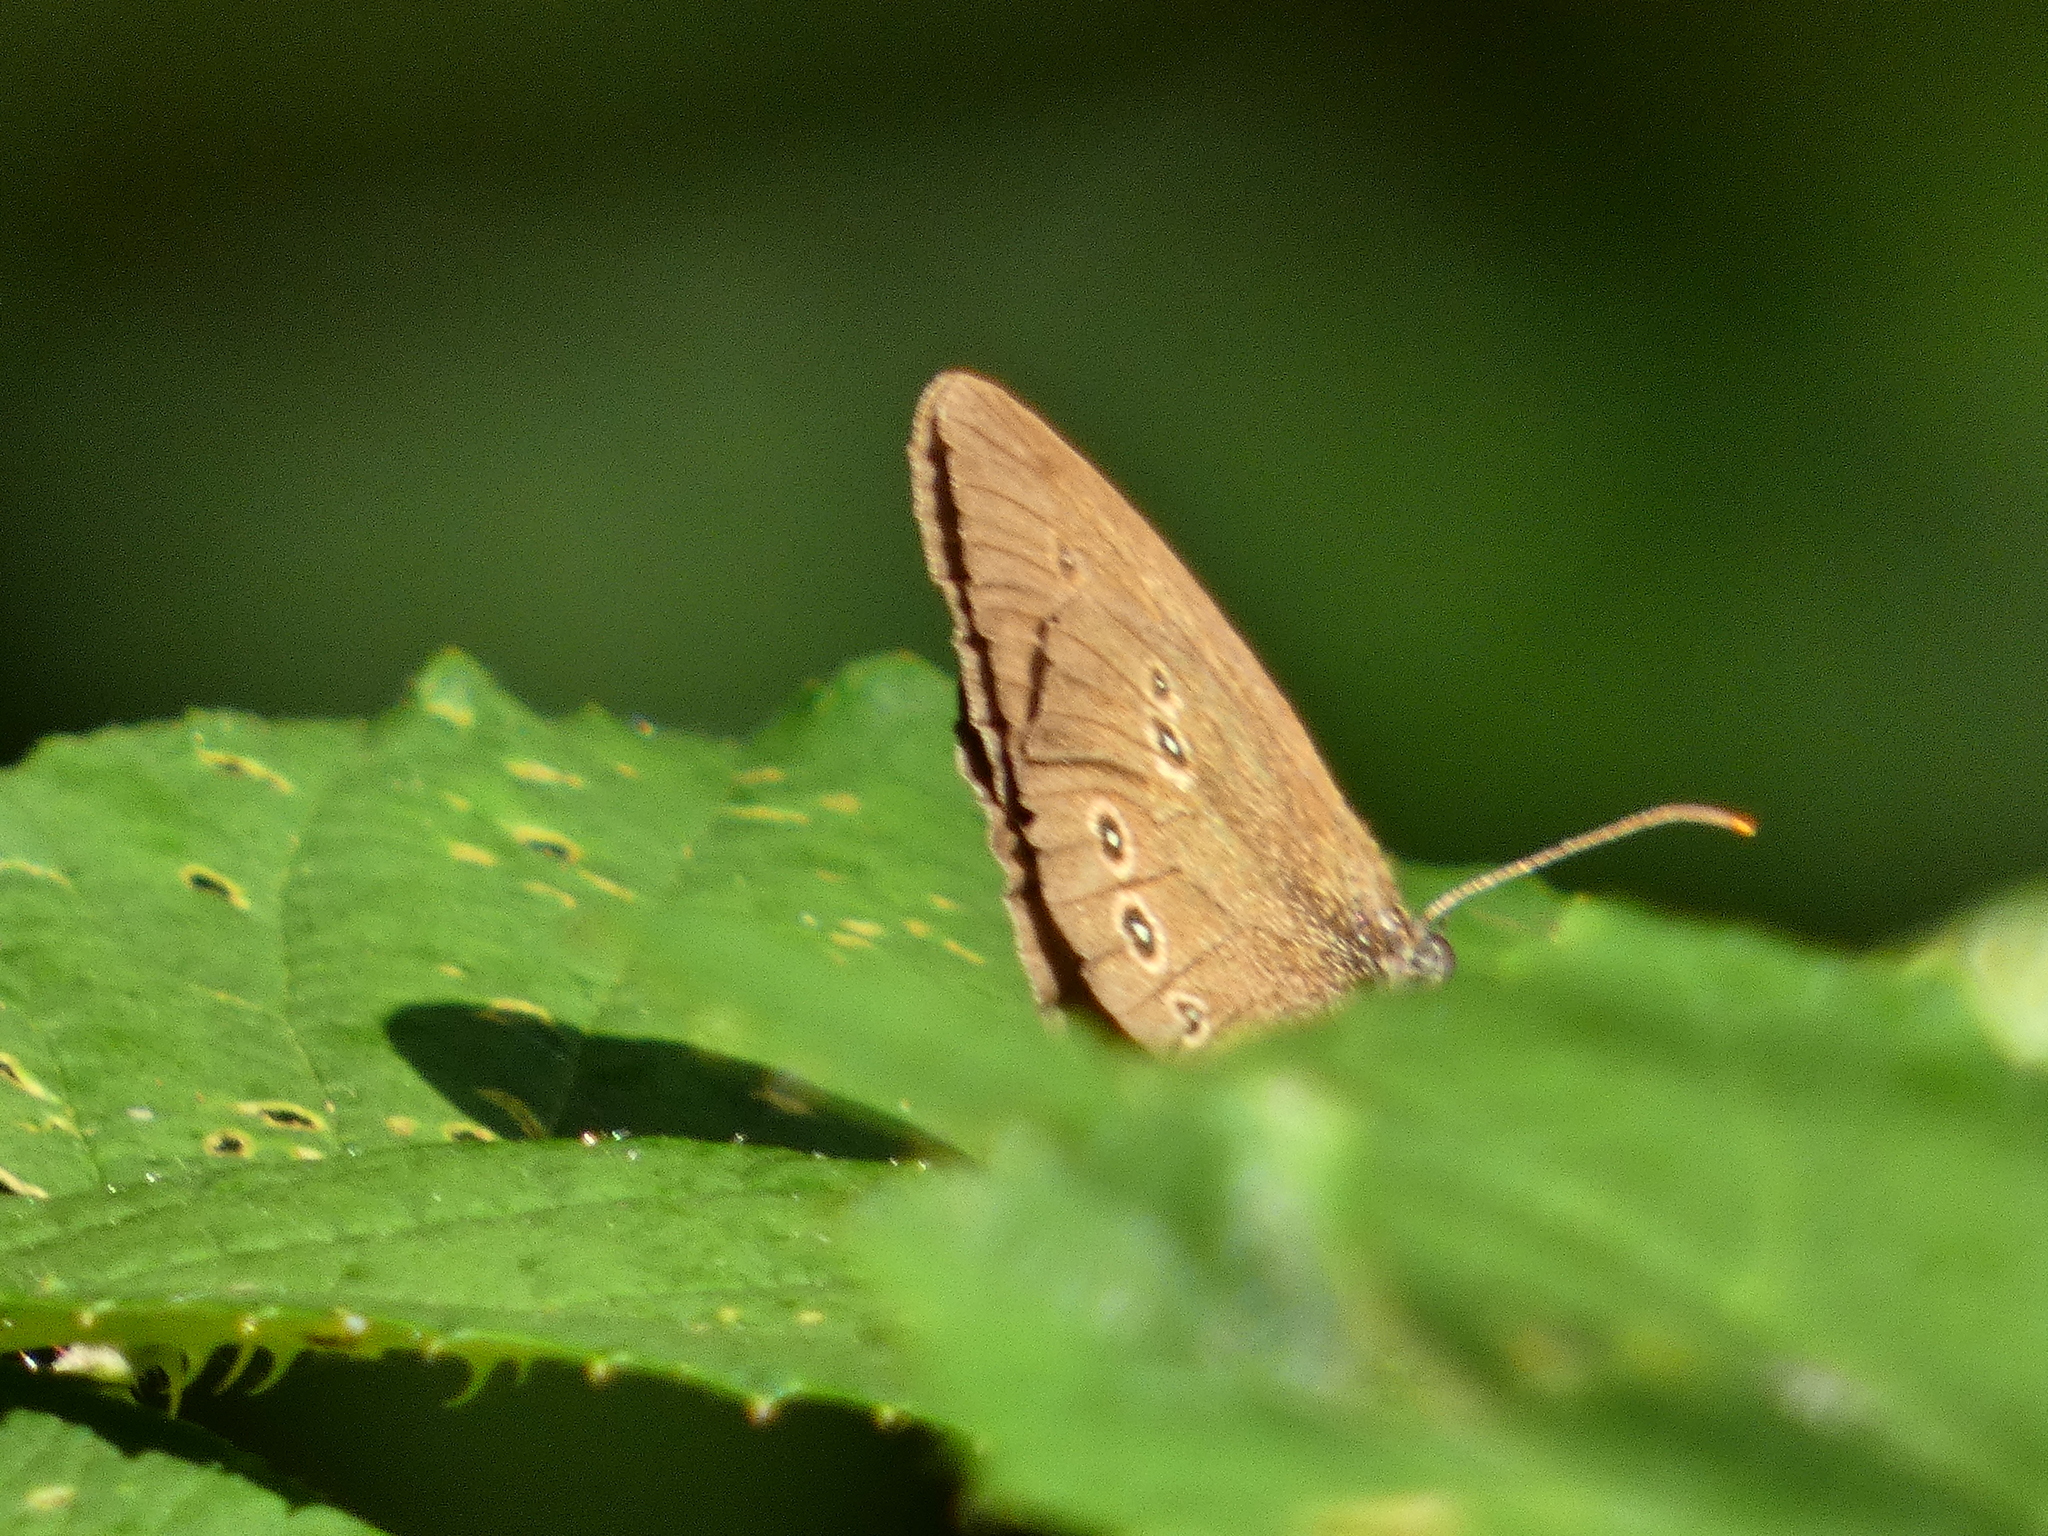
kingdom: Animalia
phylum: Arthropoda
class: Insecta
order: Lepidoptera
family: Nymphalidae
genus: Aphantopus
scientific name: Aphantopus hyperantus
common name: Ringlet
